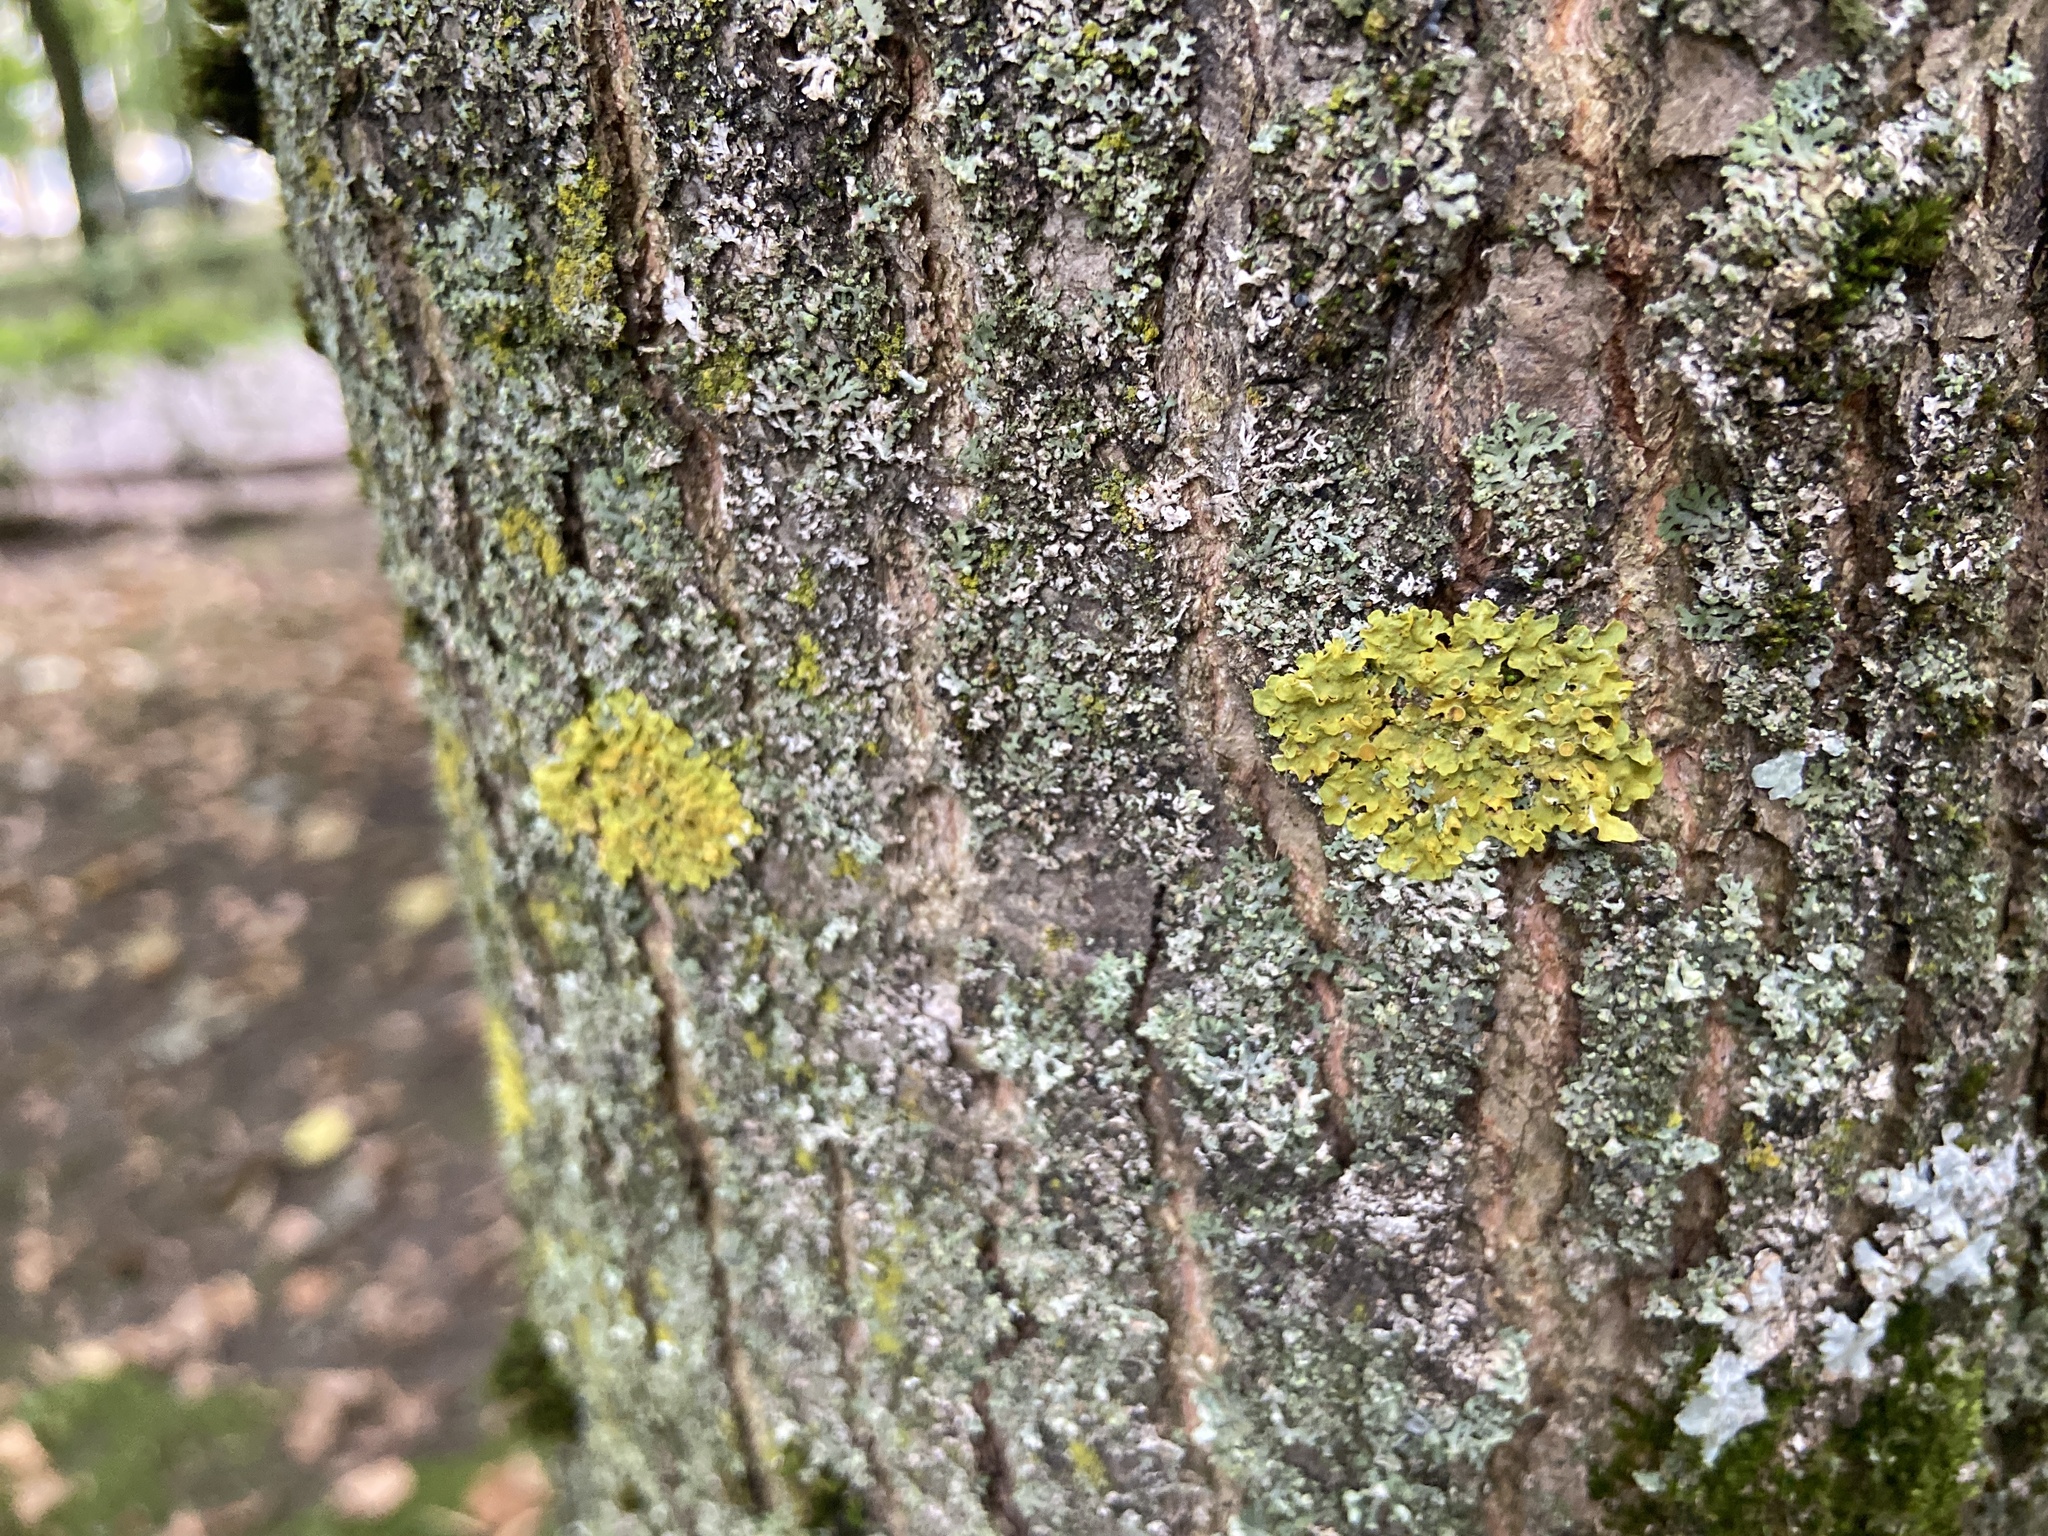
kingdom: Fungi
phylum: Ascomycota
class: Lecanoromycetes
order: Teloschistales
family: Teloschistaceae
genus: Xanthoria
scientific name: Xanthoria parietina
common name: Common orange lichen
